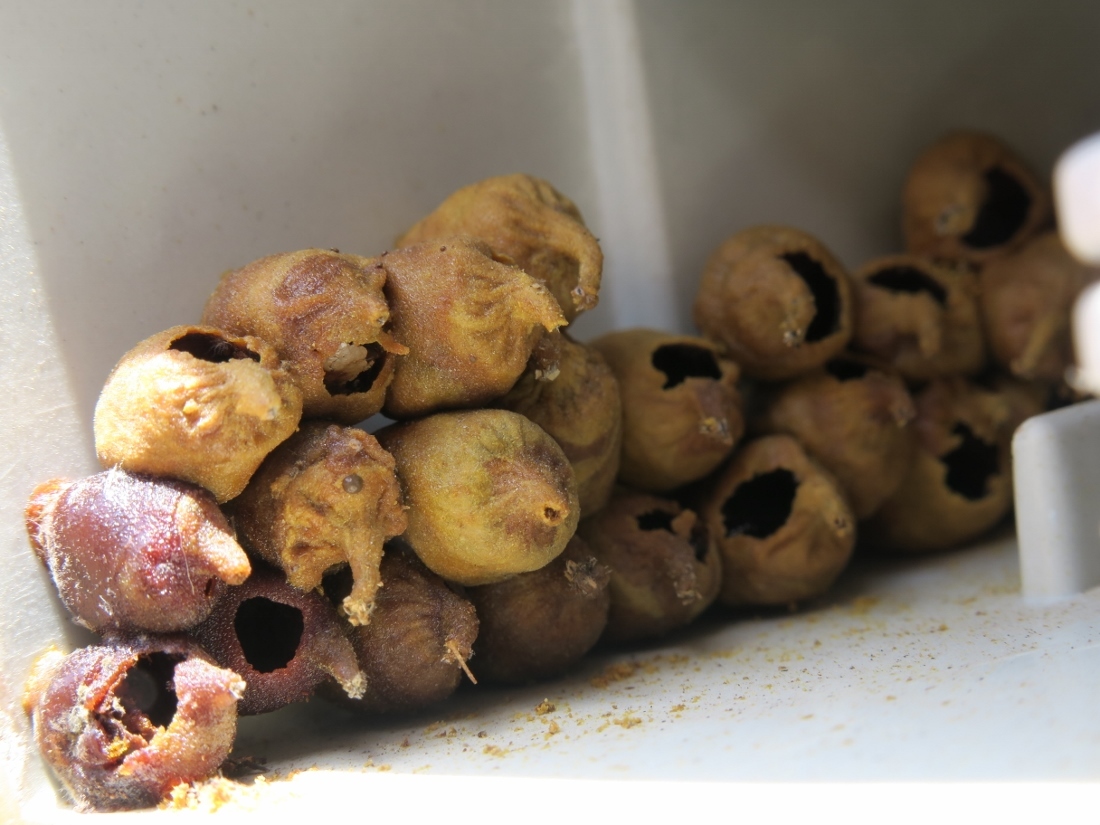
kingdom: Animalia
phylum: Arthropoda
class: Insecta
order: Hymenoptera
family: Megachilidae
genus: Plesianthidium
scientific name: Plesianthidium volkmanni
